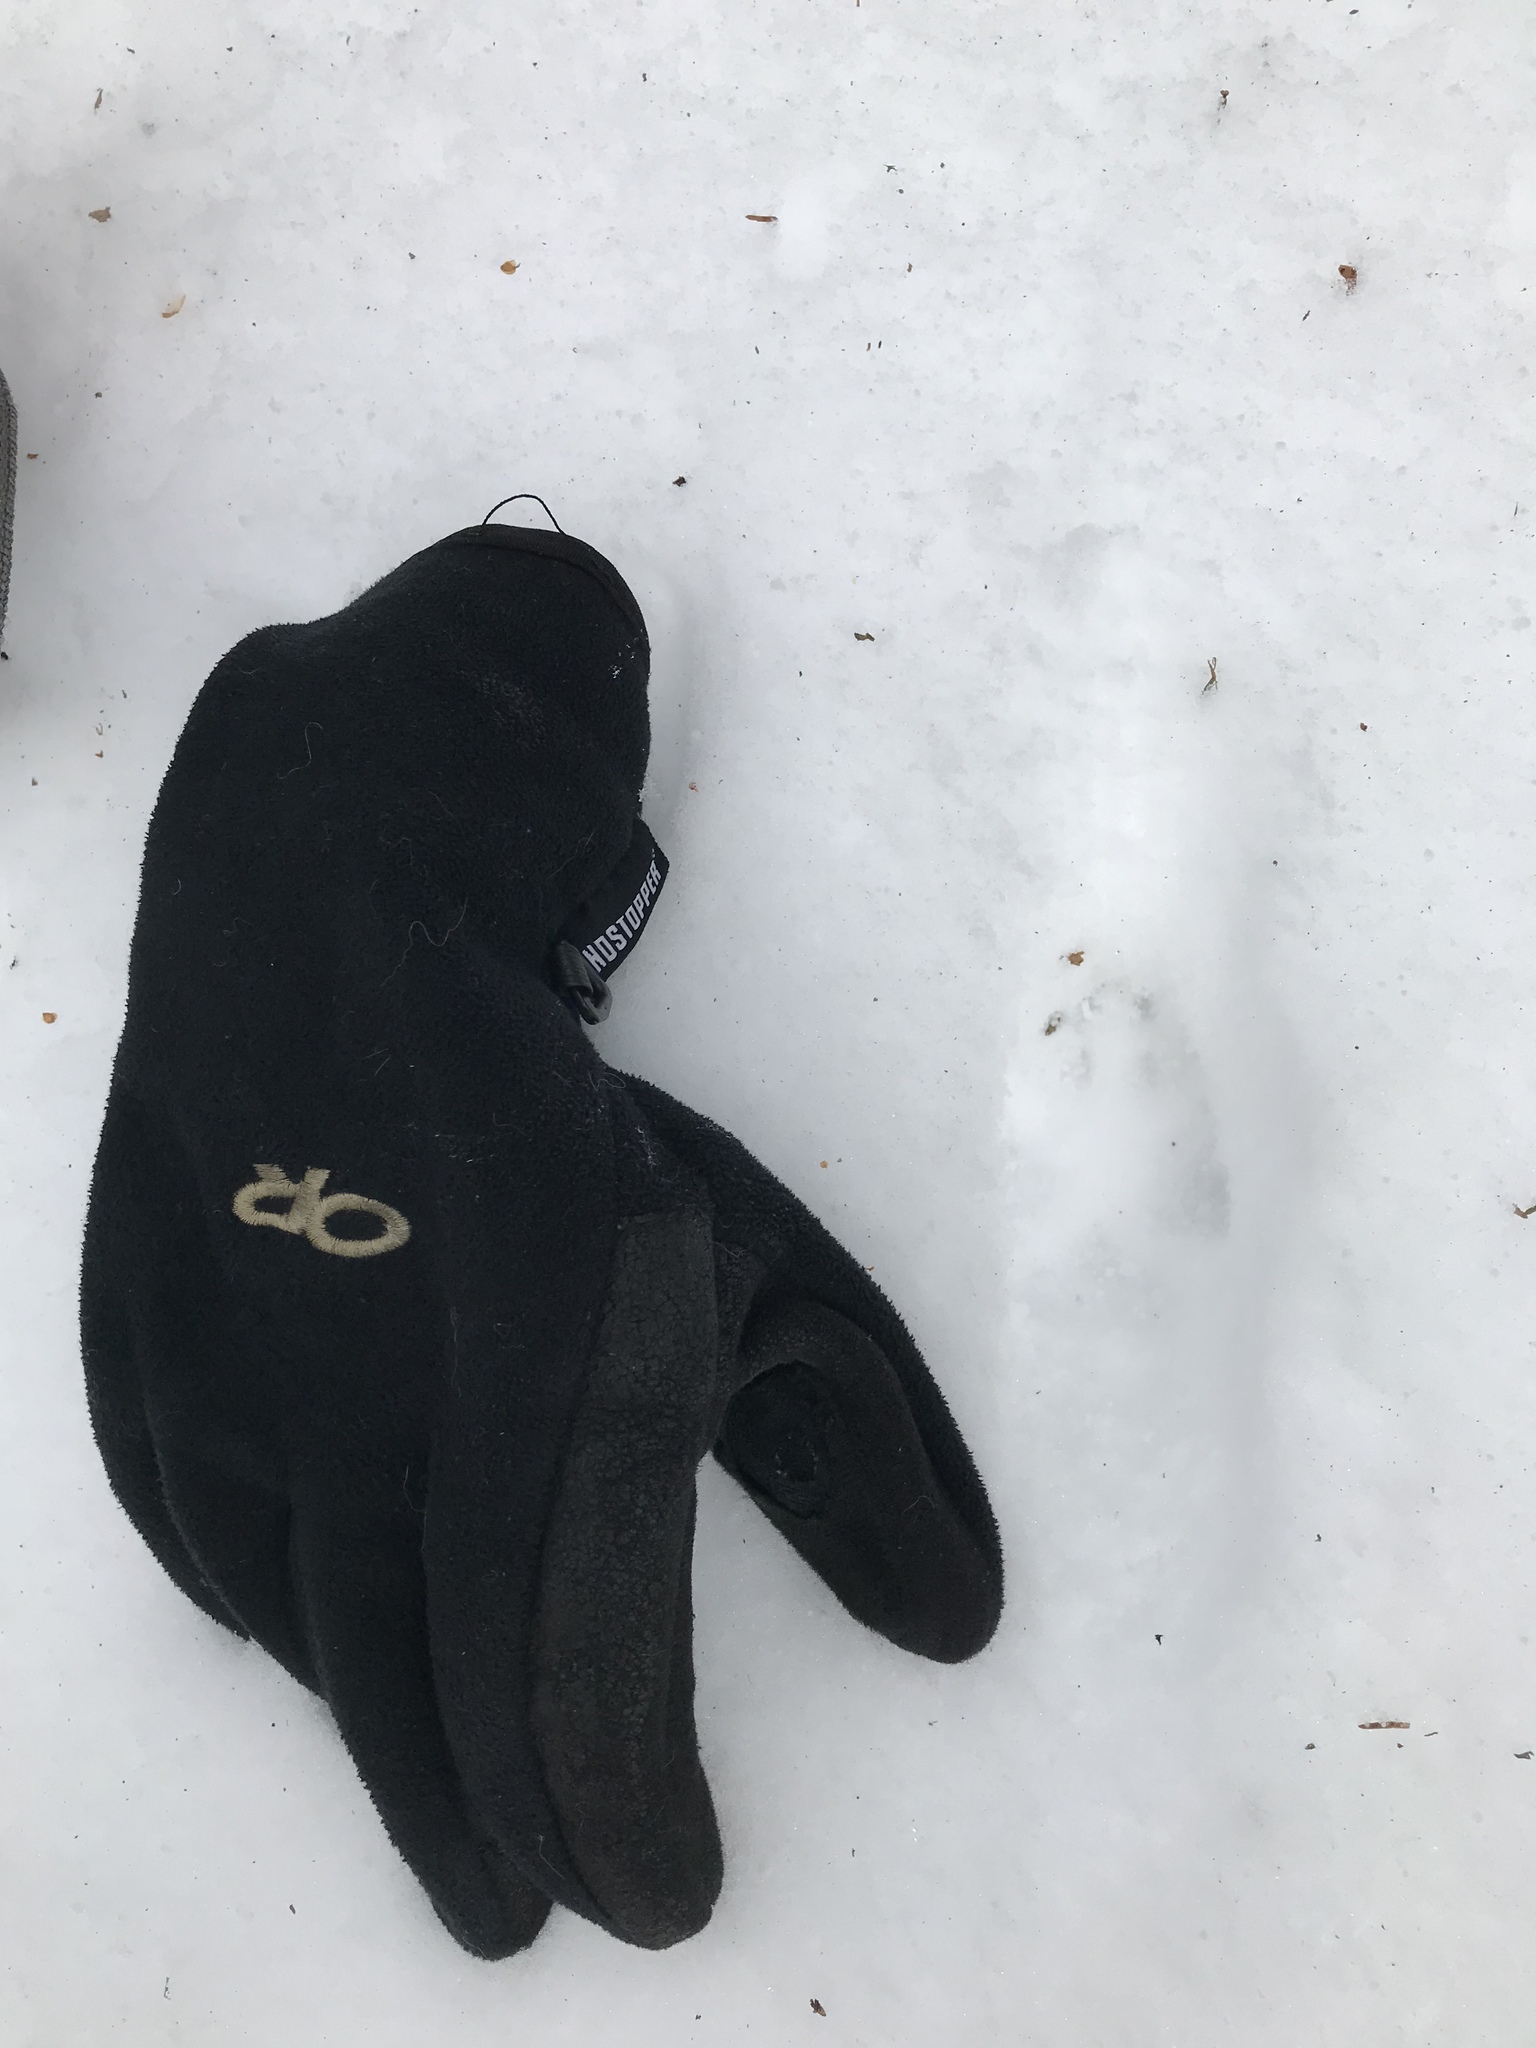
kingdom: Animalia
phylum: Chordata
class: Mammalia
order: Carnivora
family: Canidae
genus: Vulpes
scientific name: Vulpes vulpes
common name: Red fox
